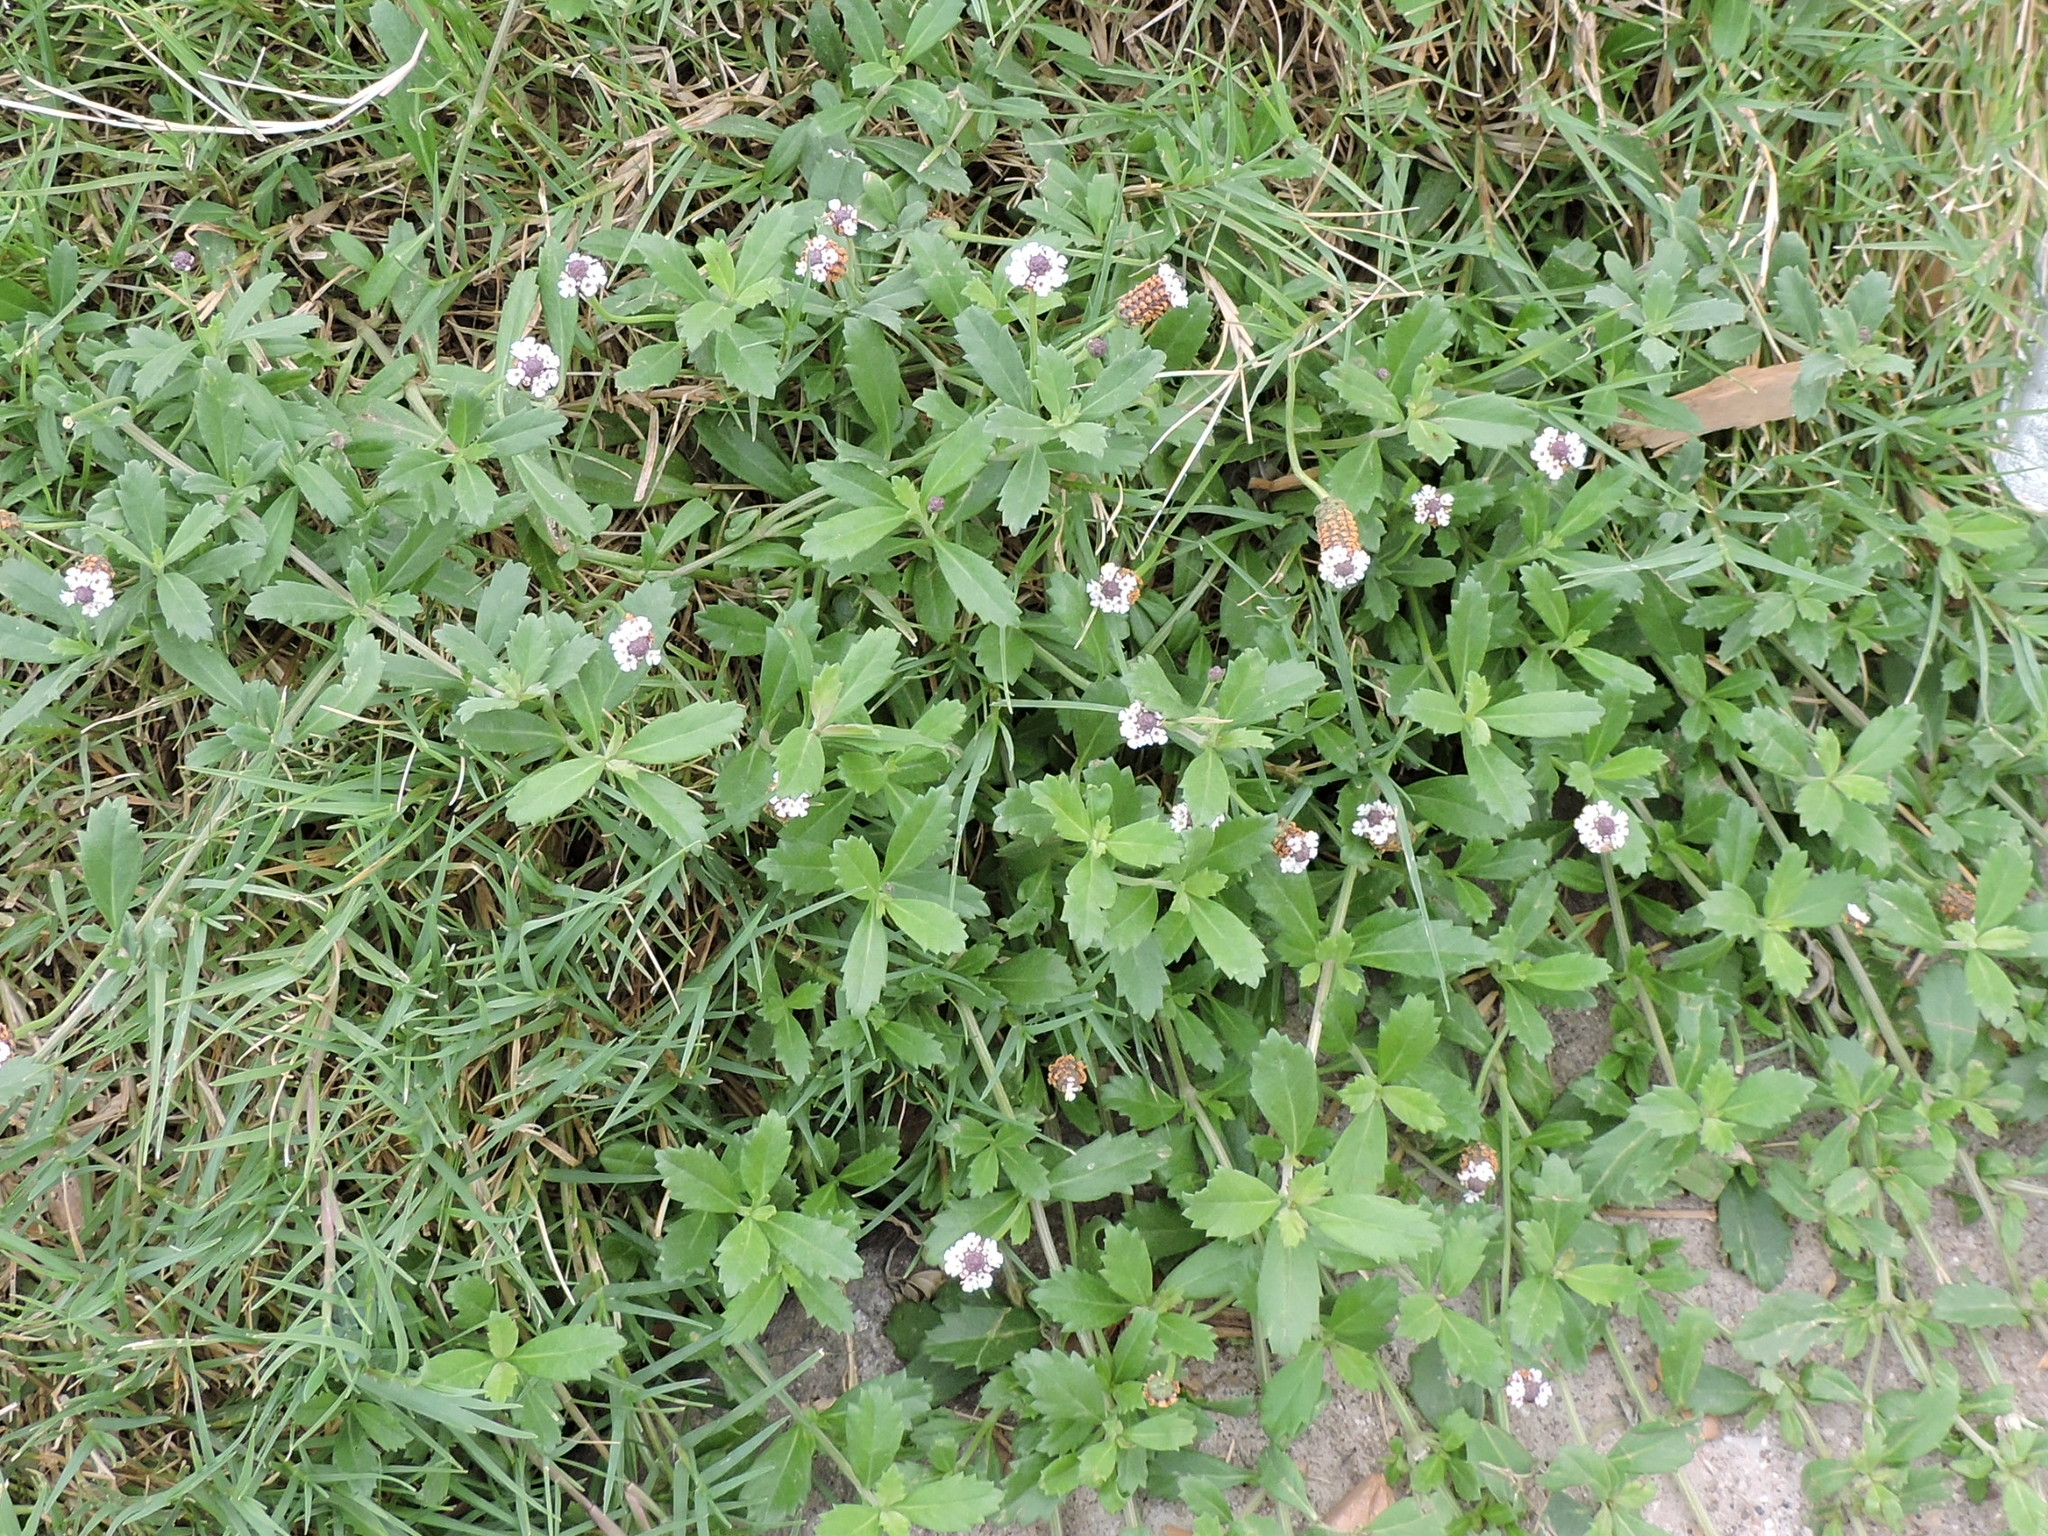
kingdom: Plantae
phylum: Tracheophyta
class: Magnoliopsida
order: Lamiales
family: Verbenaceae
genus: Phyla
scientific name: Phyla nodiflora
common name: Frogfruit
